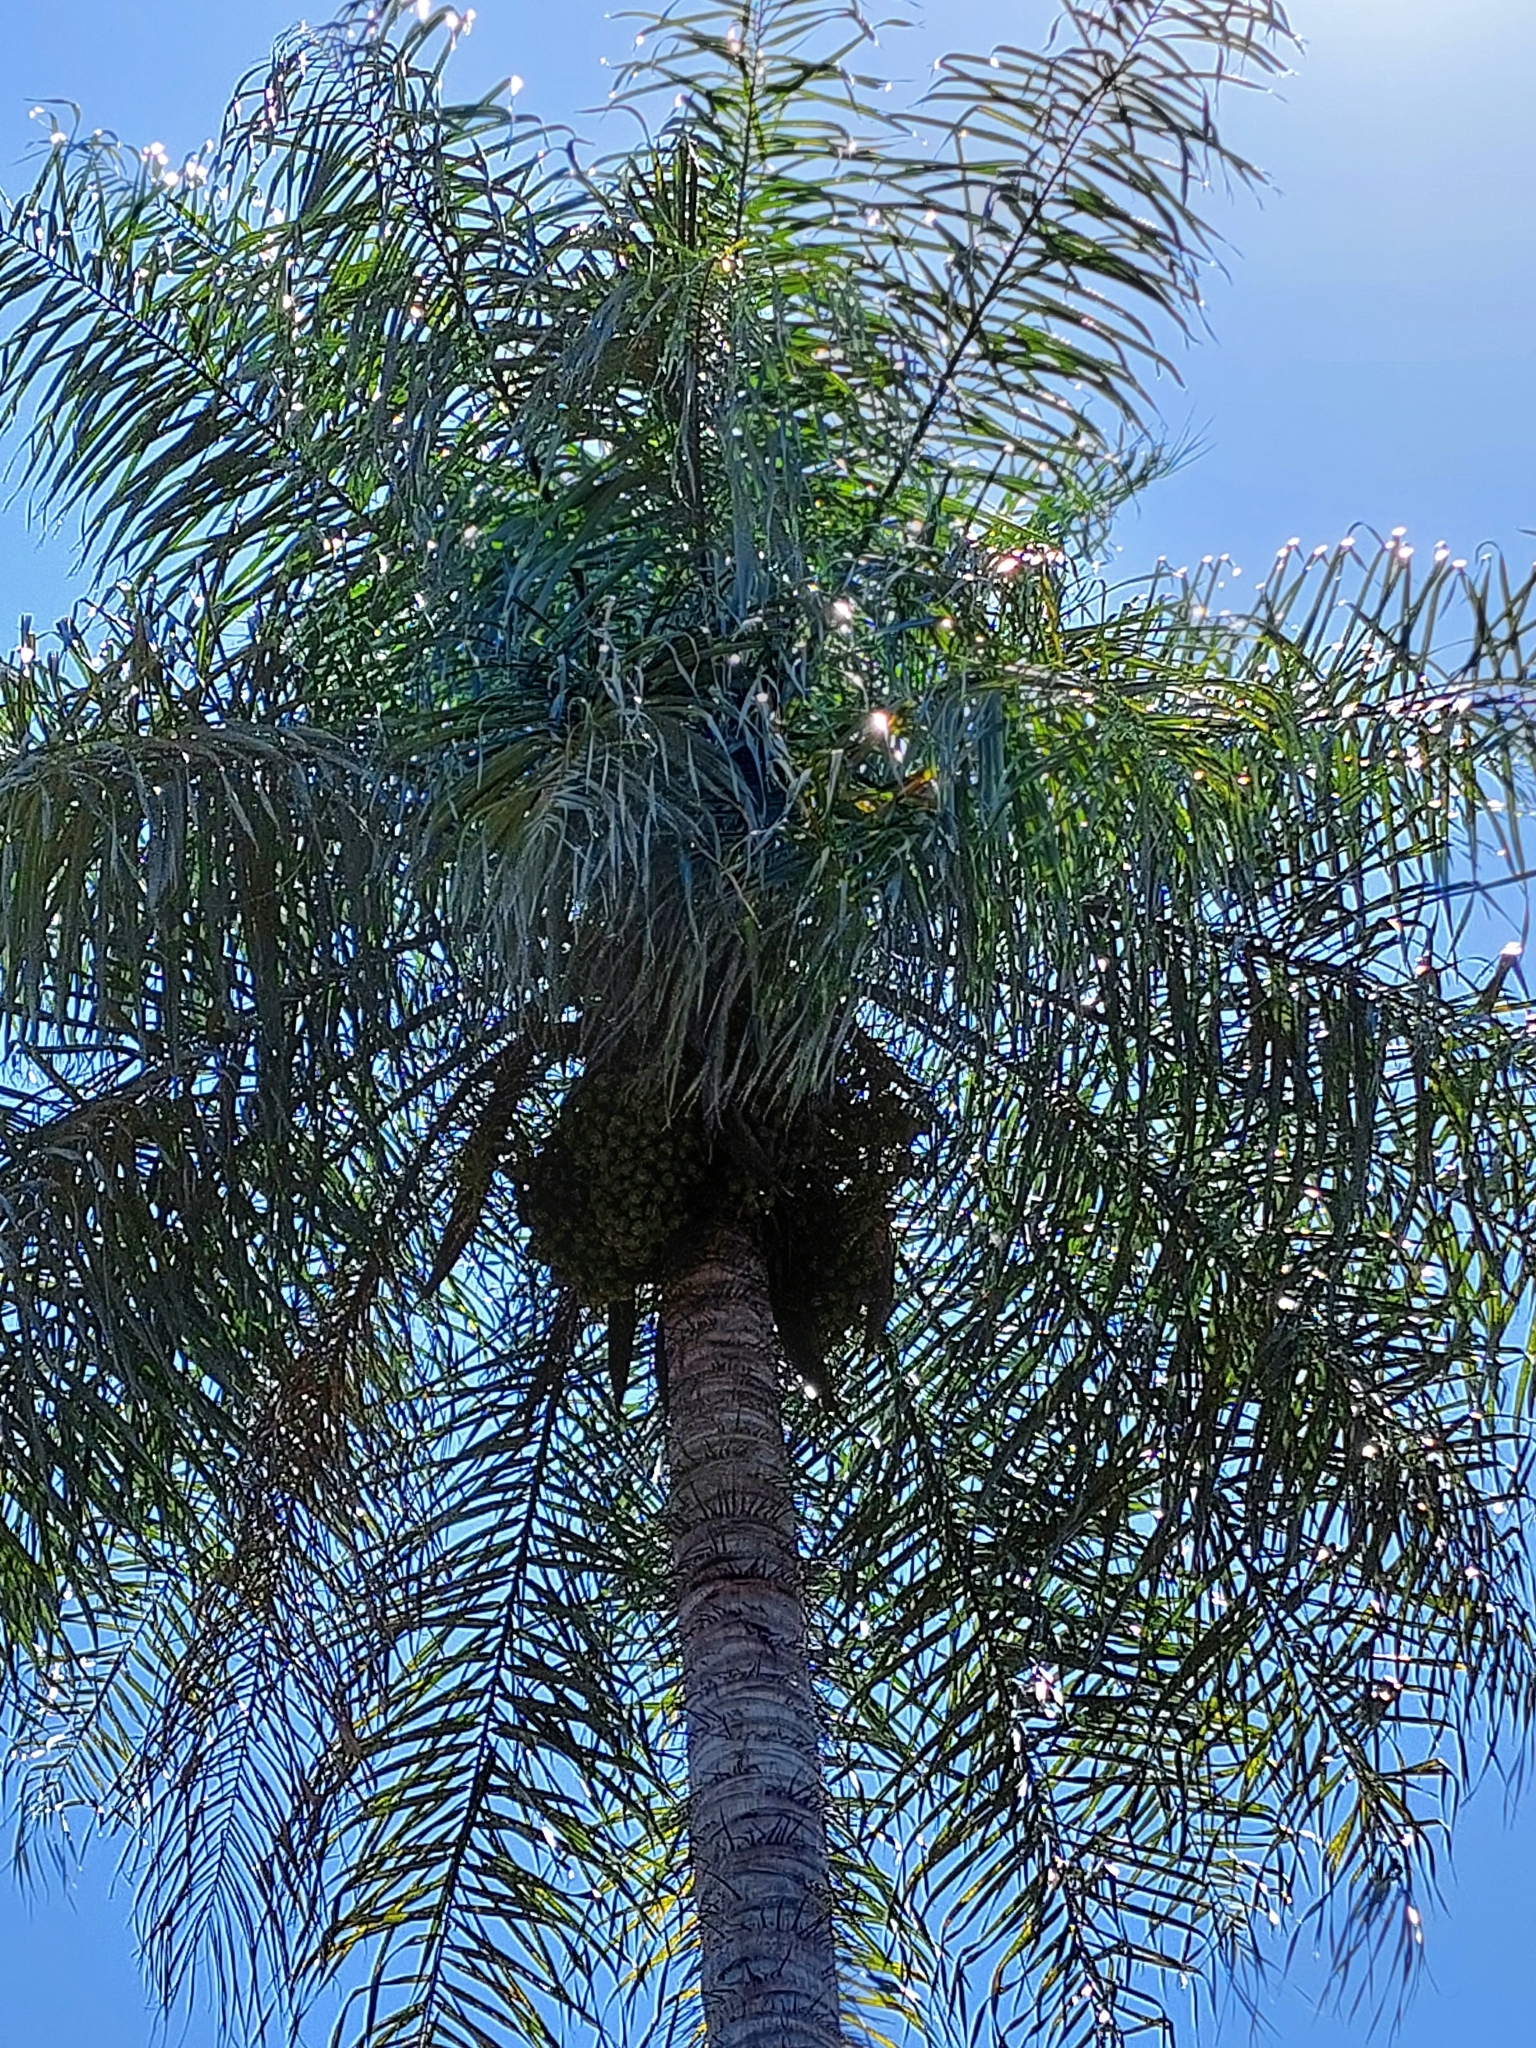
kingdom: Plantae
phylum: Tracheophyta
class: Liliopsida
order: Arecales
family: Arecaceae
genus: Acrocomia
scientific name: Acrocomia aculeata
